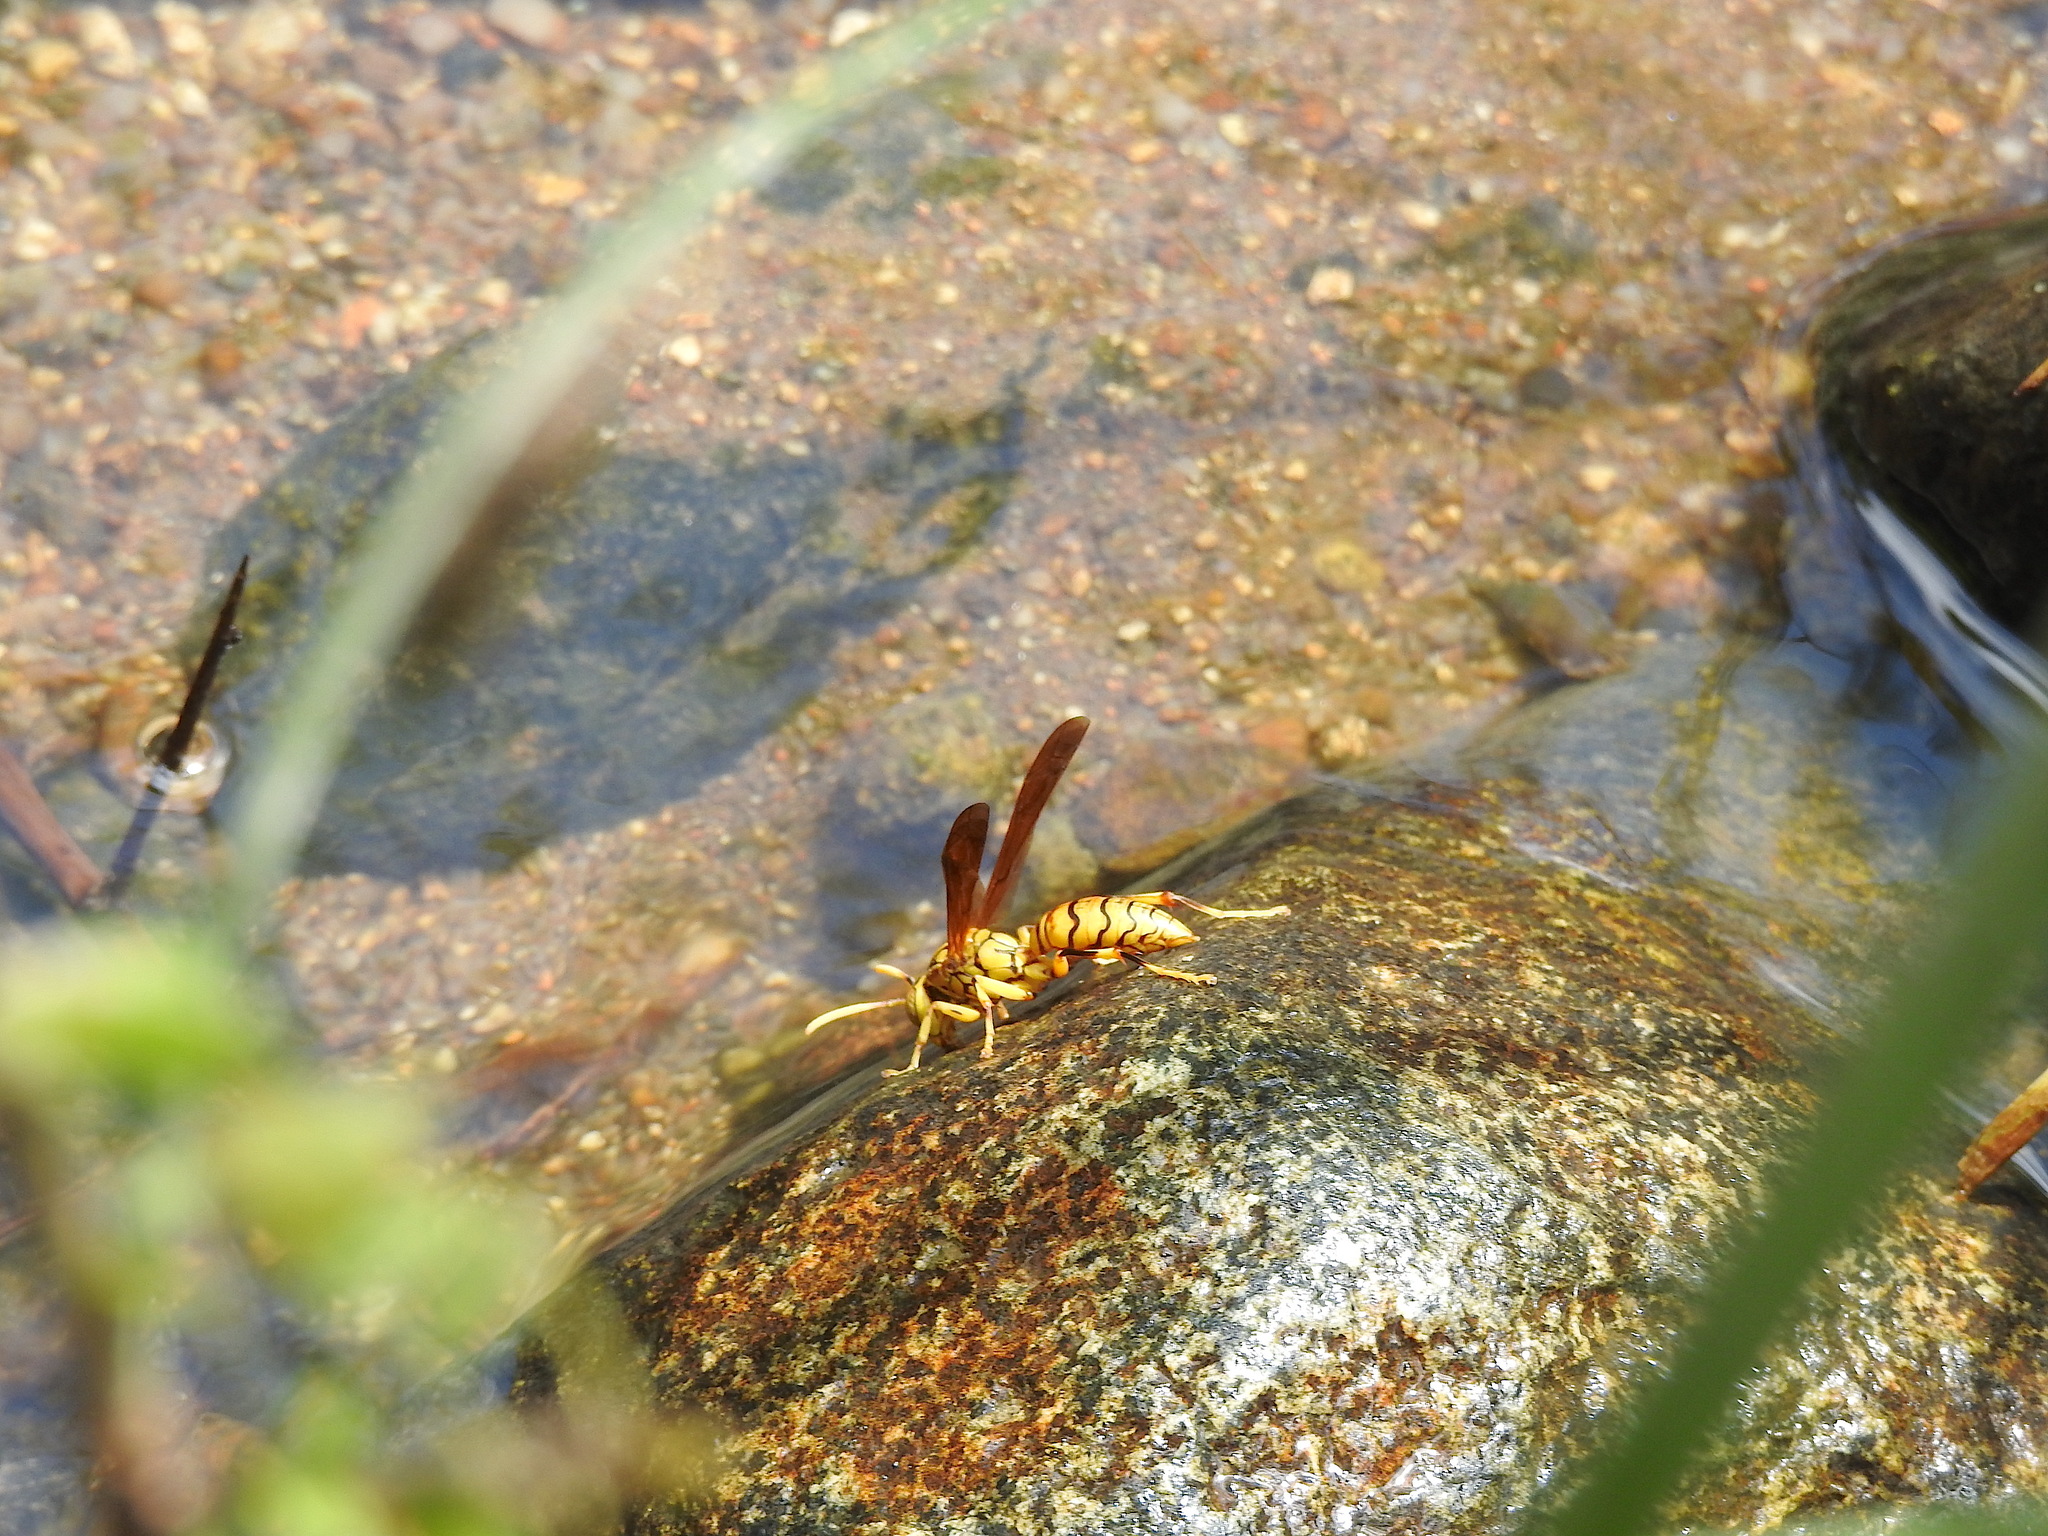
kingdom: Animalia
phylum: Arthropoda
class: Insecta
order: Hymenoptera
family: Eumenidae
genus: Polistes
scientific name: Polistes olivaceus
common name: Paper wasp
